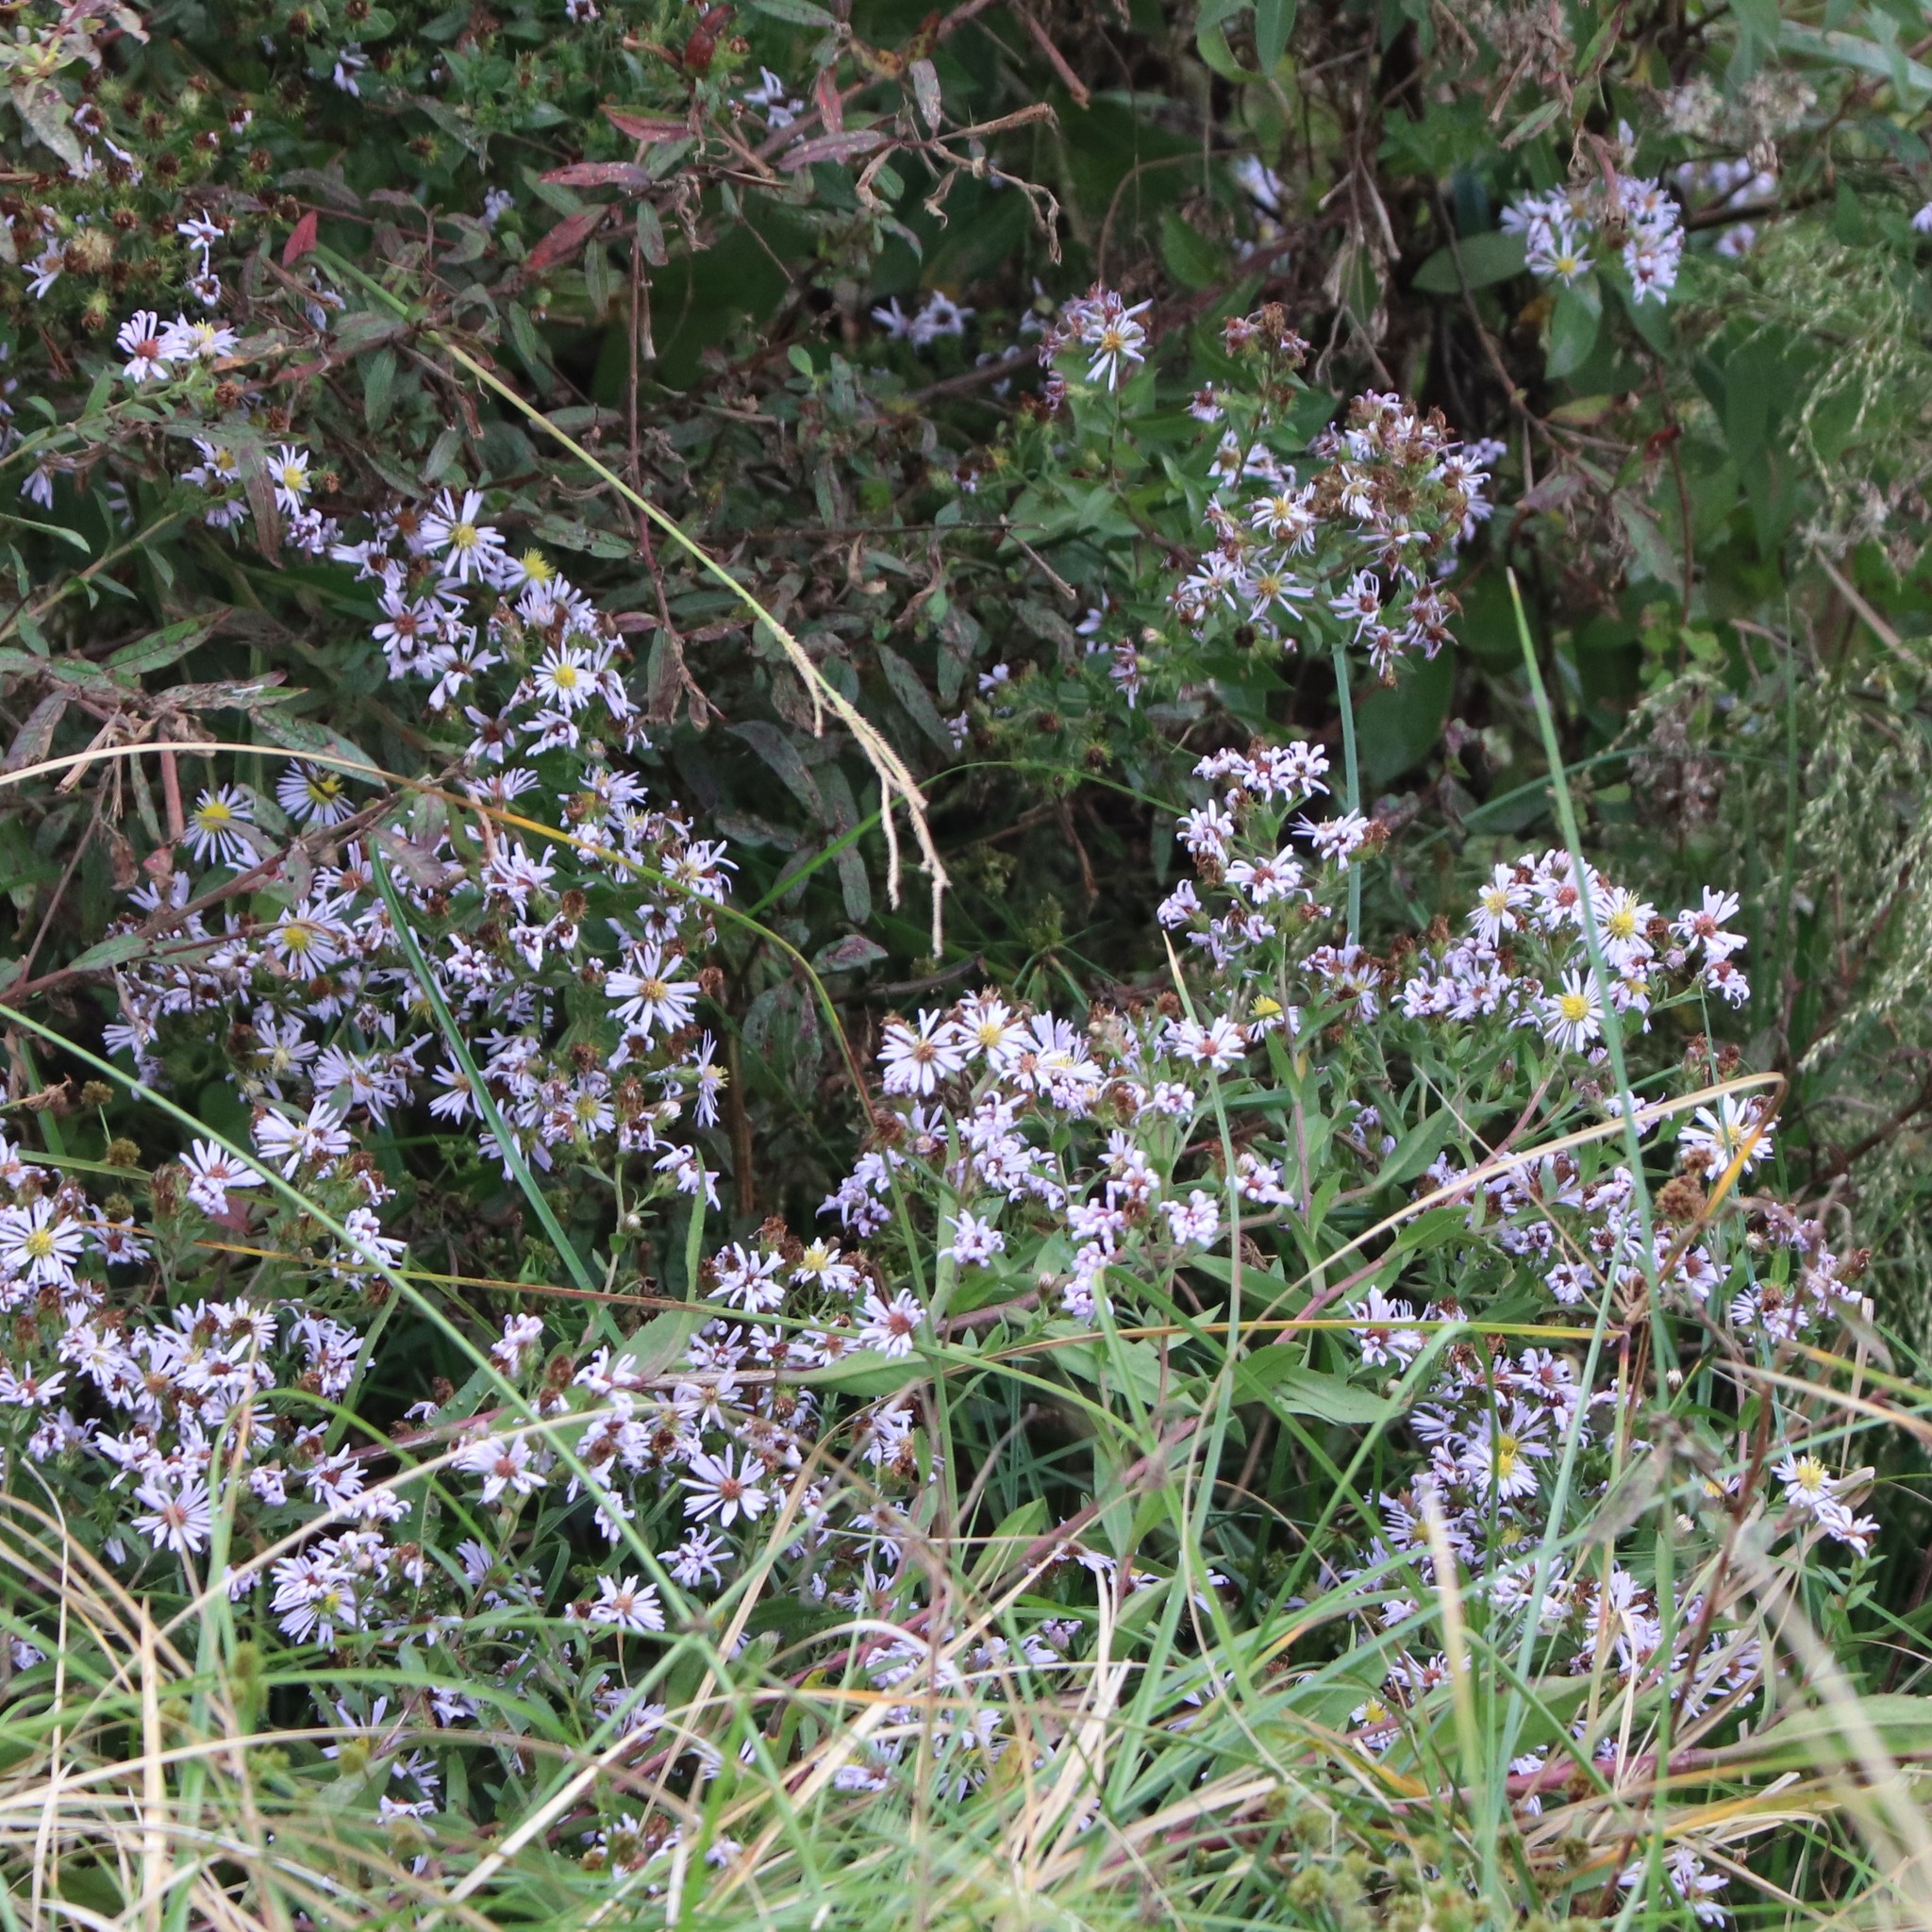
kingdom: Plantae
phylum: Tracheophyta
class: Magnoliopsida
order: Asterales
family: Asteraceae
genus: Symphyotrichum
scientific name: Symphyotrichum elliottii
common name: Southern swamp aster
